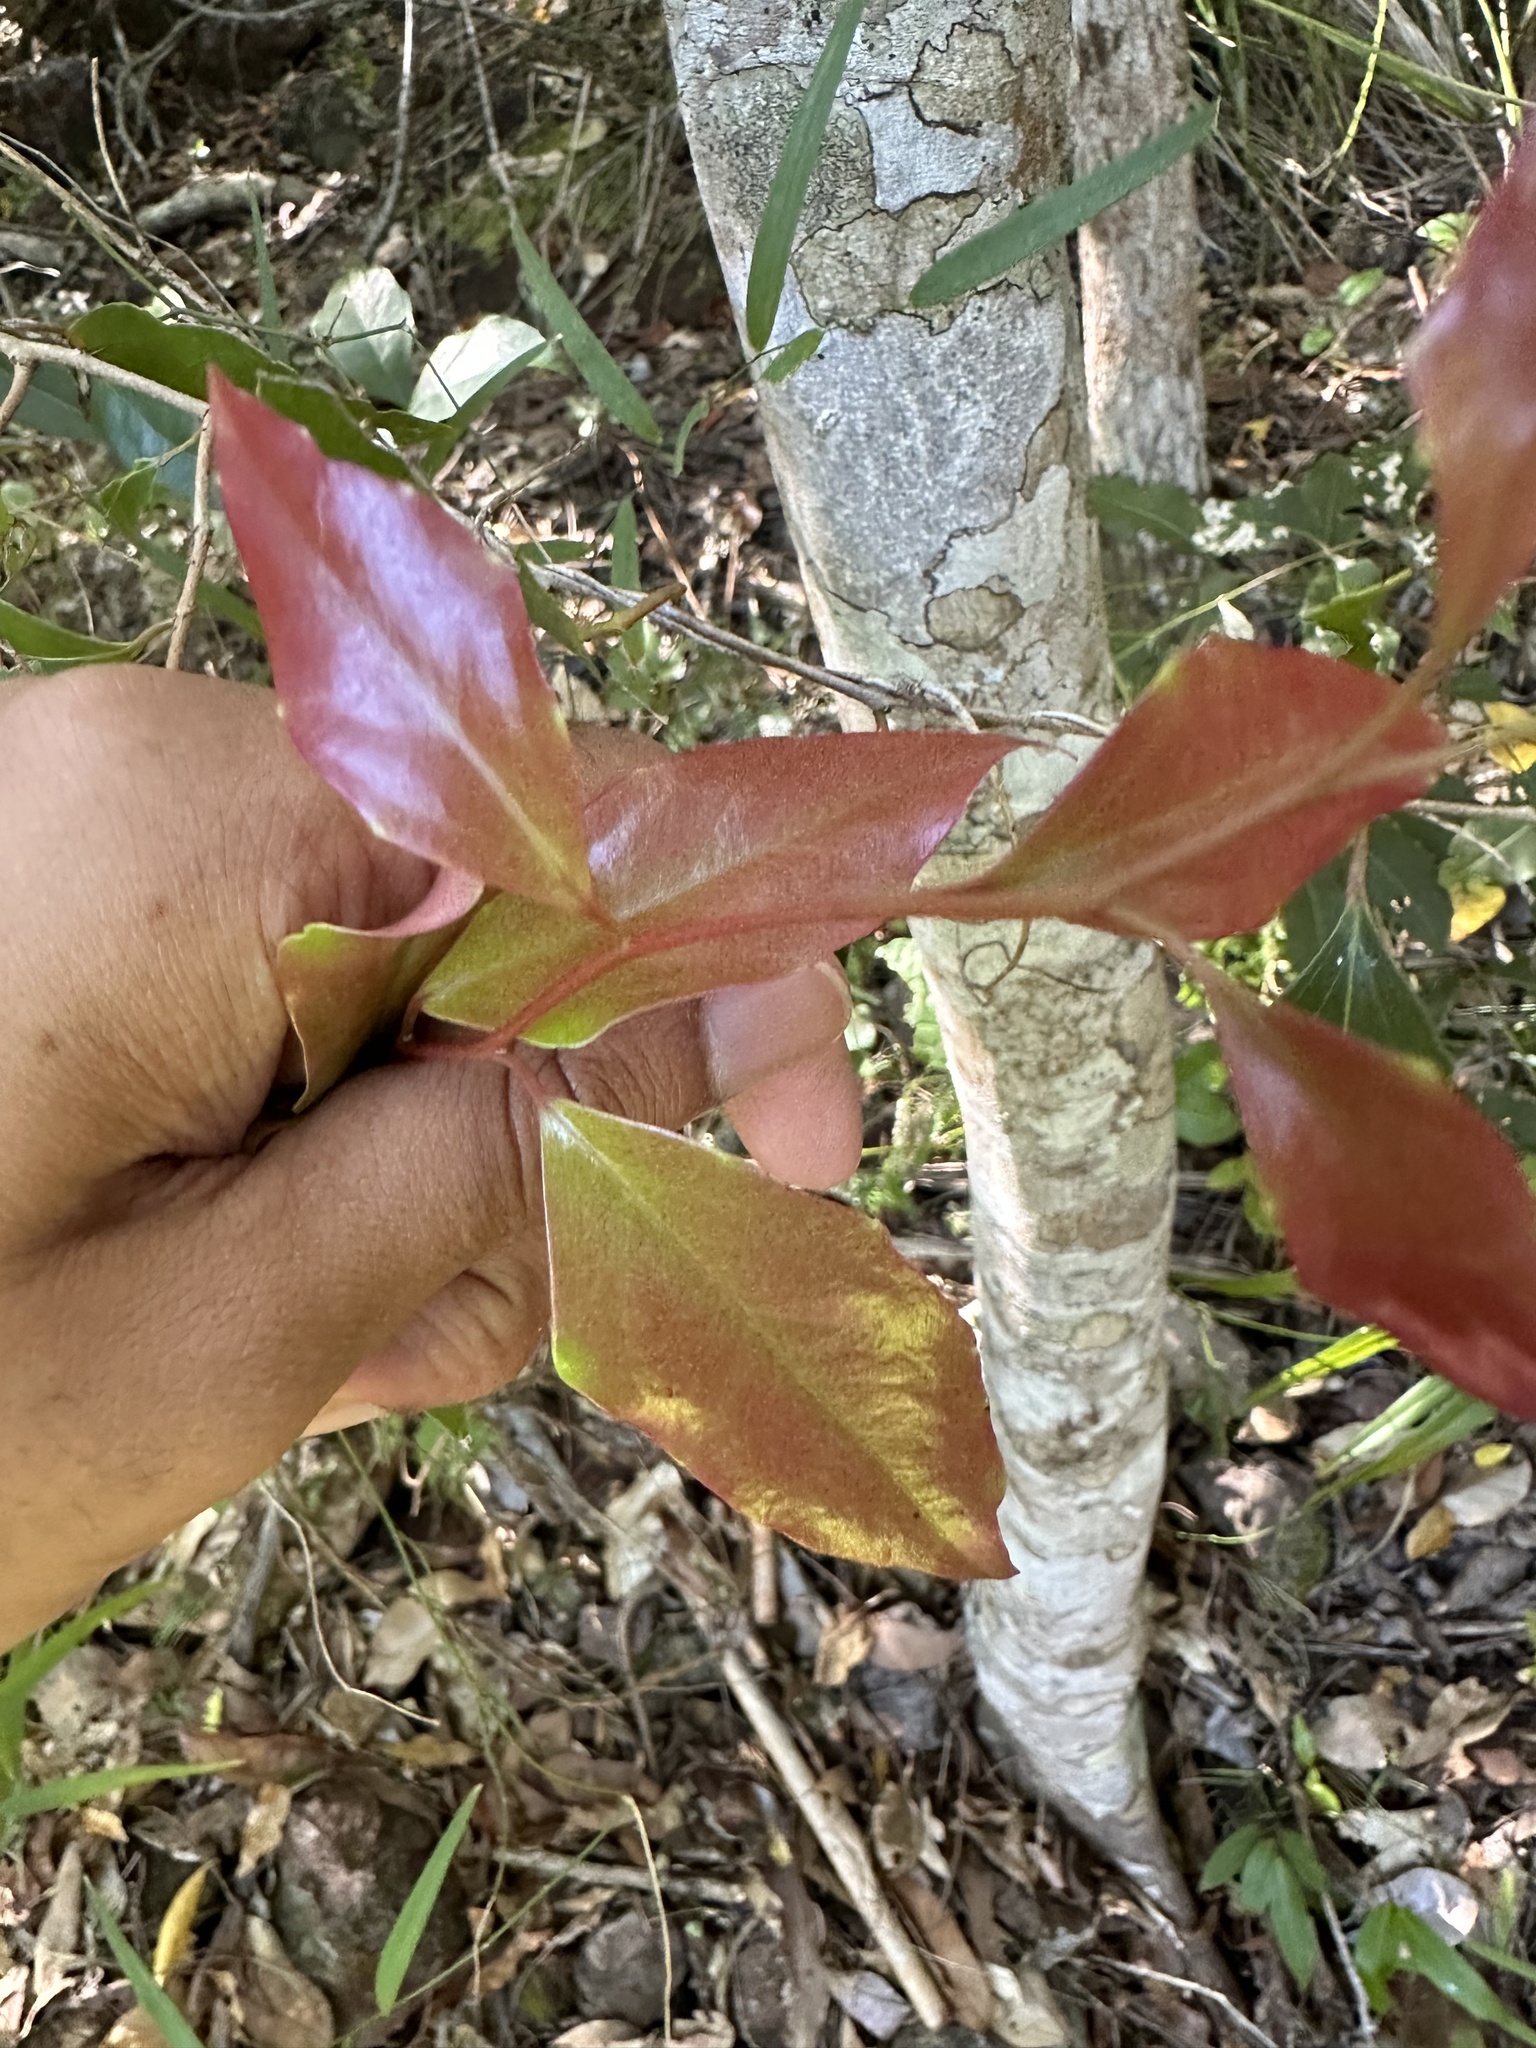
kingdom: Plantae
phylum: Tracheophyta
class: Magnoliopsida
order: Malpighiales
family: Salicaceae
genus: Scolopia
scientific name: Scolopia braunii
